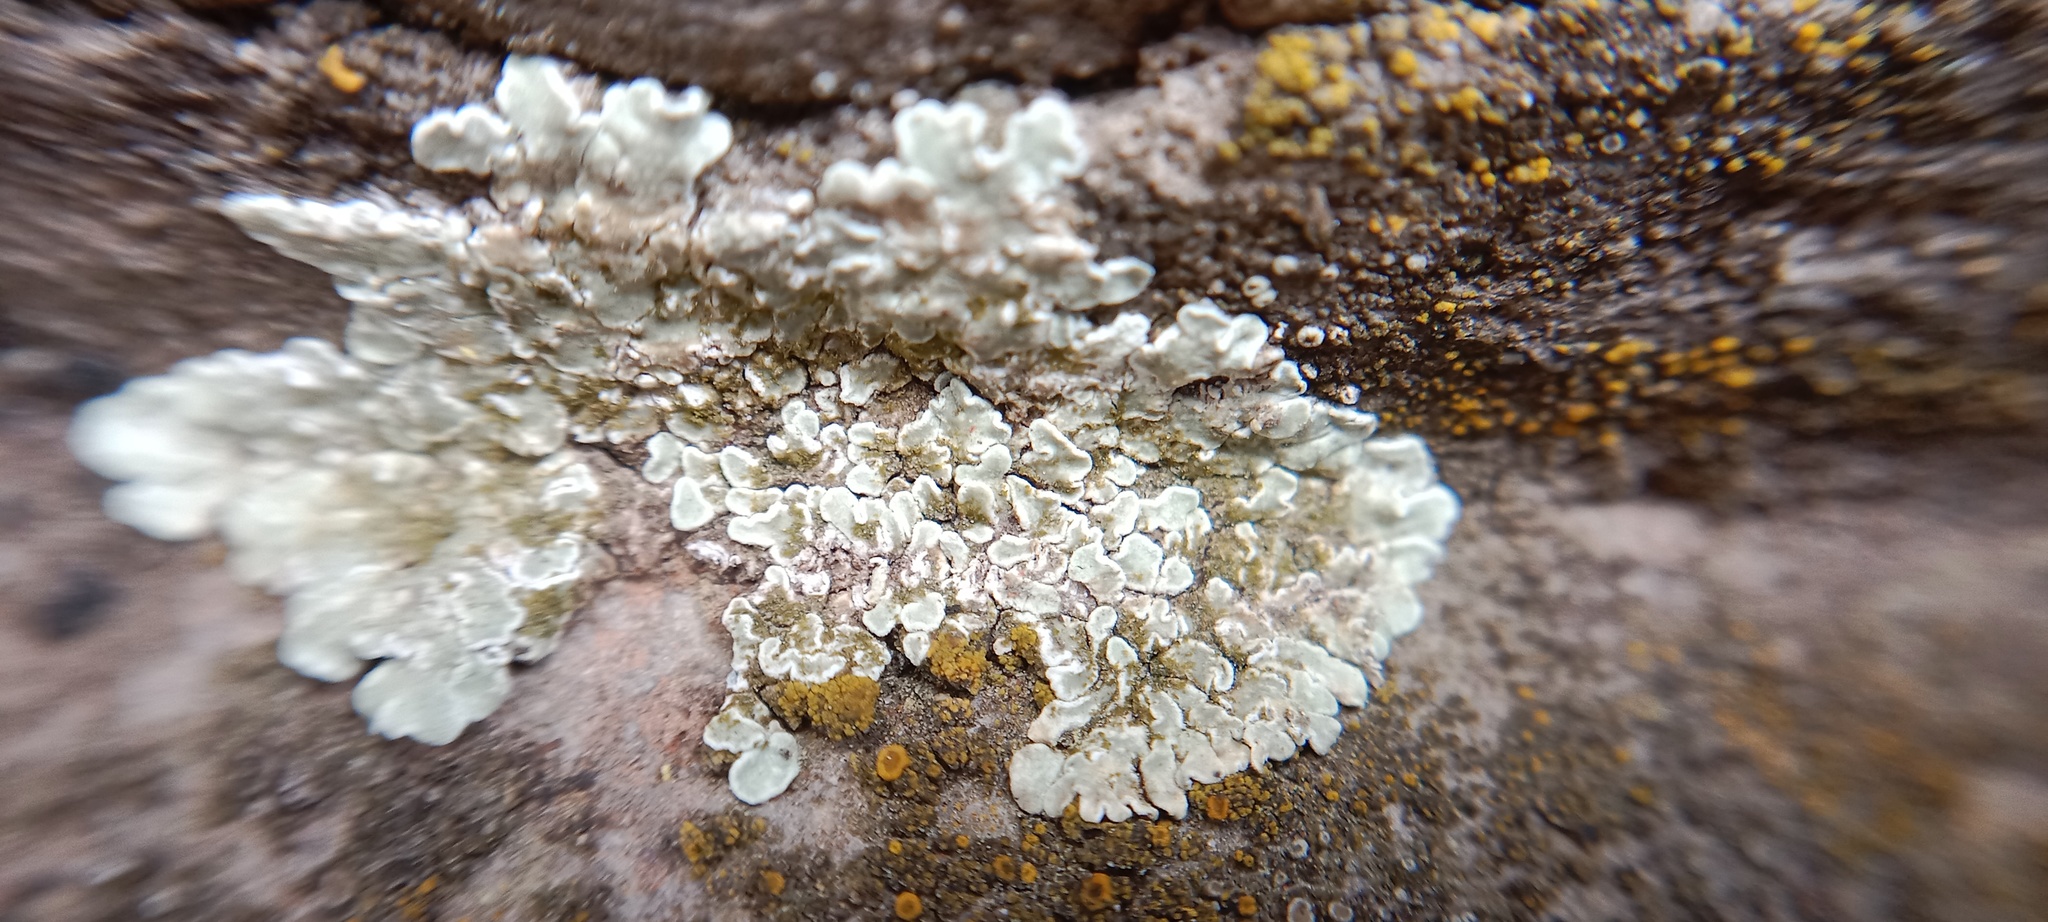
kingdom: Fungi
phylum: Ascomycota
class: Lecanoromycetes
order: Lecanorales
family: Lecanoraceae
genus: Protoparmeliopsis
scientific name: Protoparmeliopsis muralis
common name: Stonewall rim lichen
